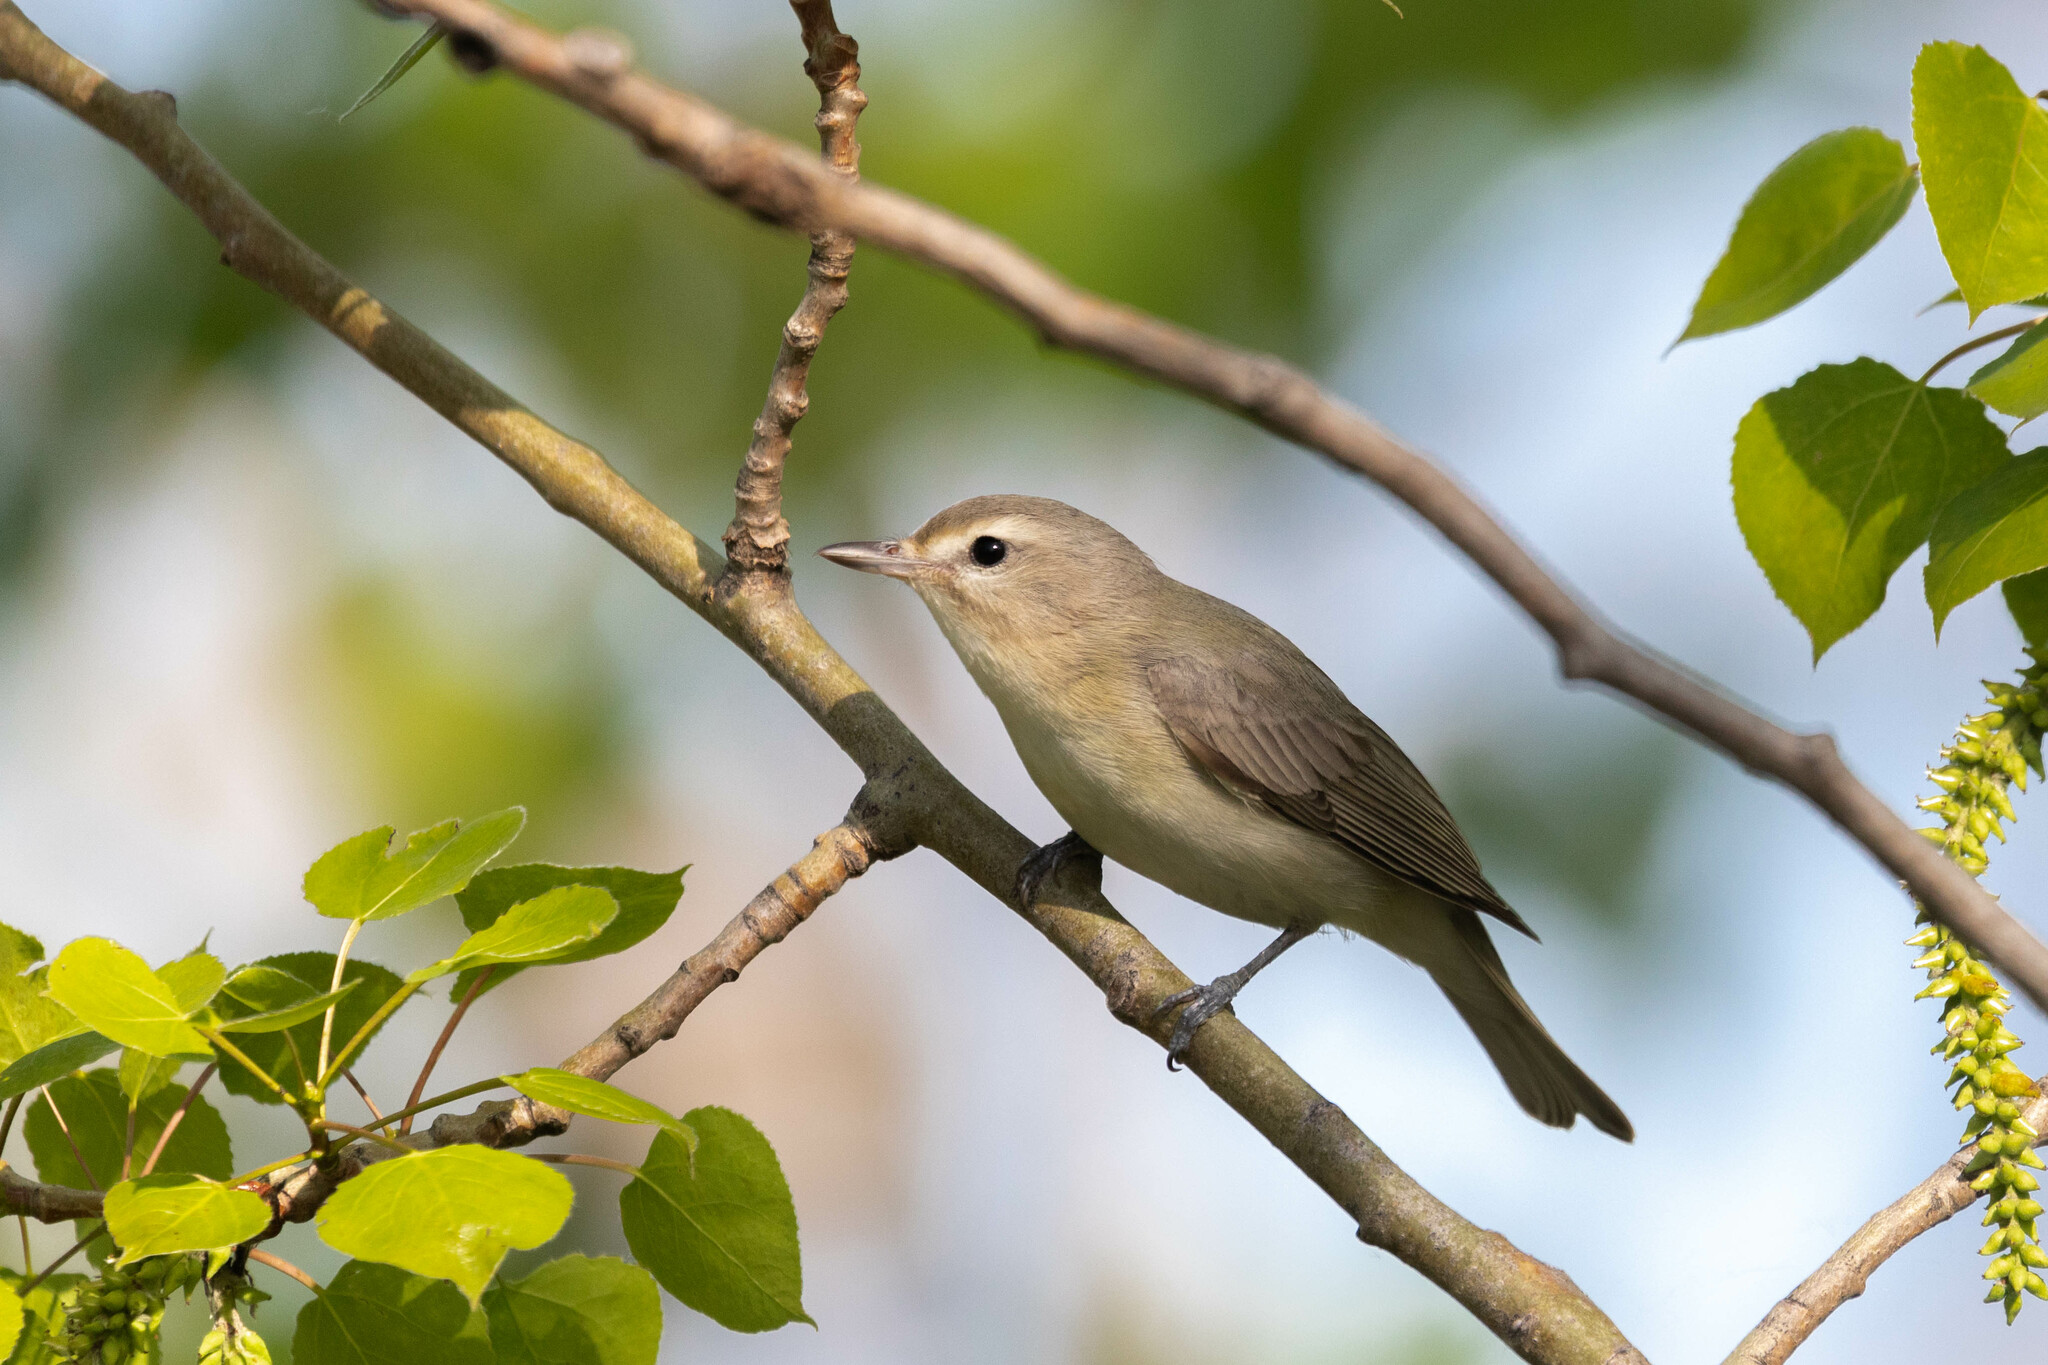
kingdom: Animalia
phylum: Chordata
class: Aves
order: Passeriformes
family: Vireonidae
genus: Vireo
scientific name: Vireo gilvus
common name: Warbling vireo
